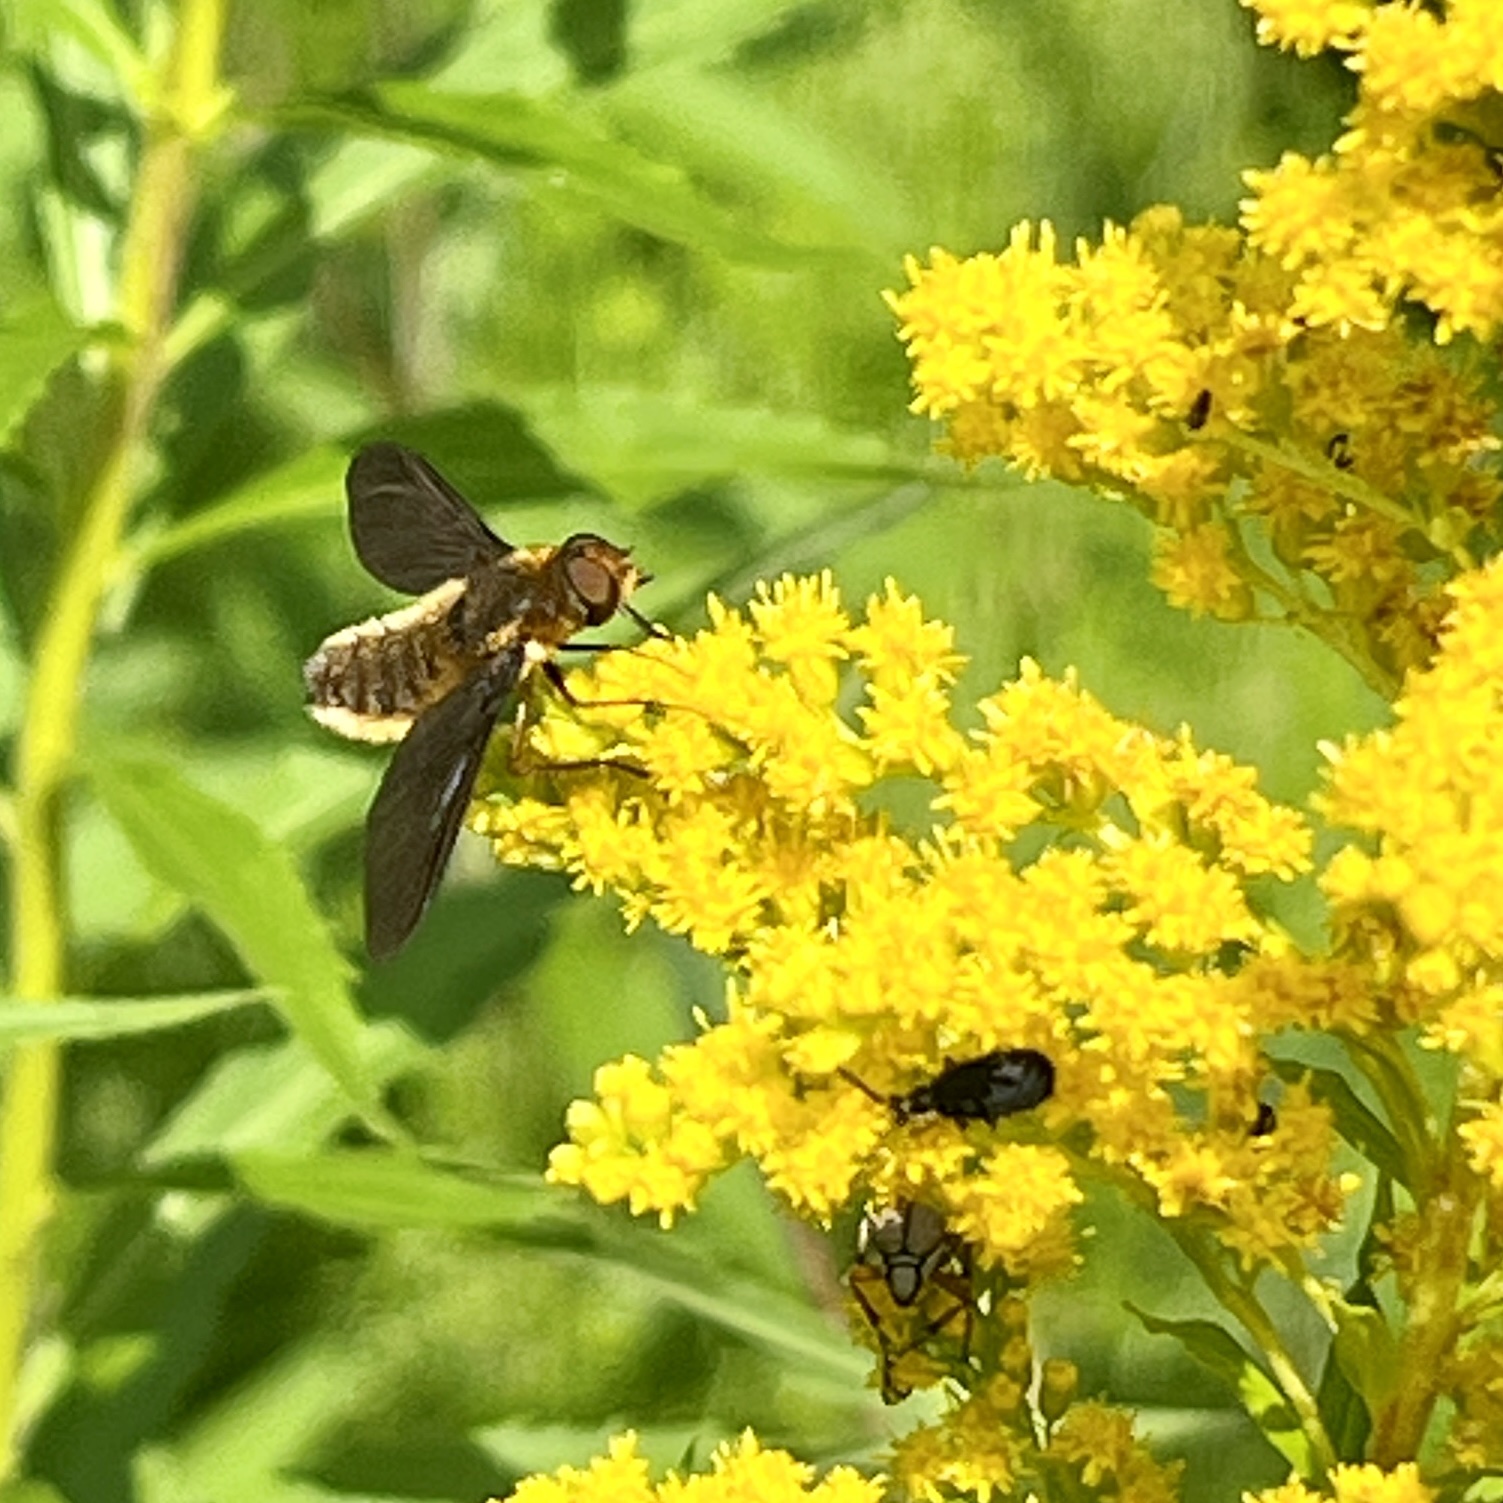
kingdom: Animalia
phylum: Arthropoda
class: Insecta
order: Diptera
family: Bombyliidae
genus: Poecilanthrax
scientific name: Poecilanthrax tegminipennis
